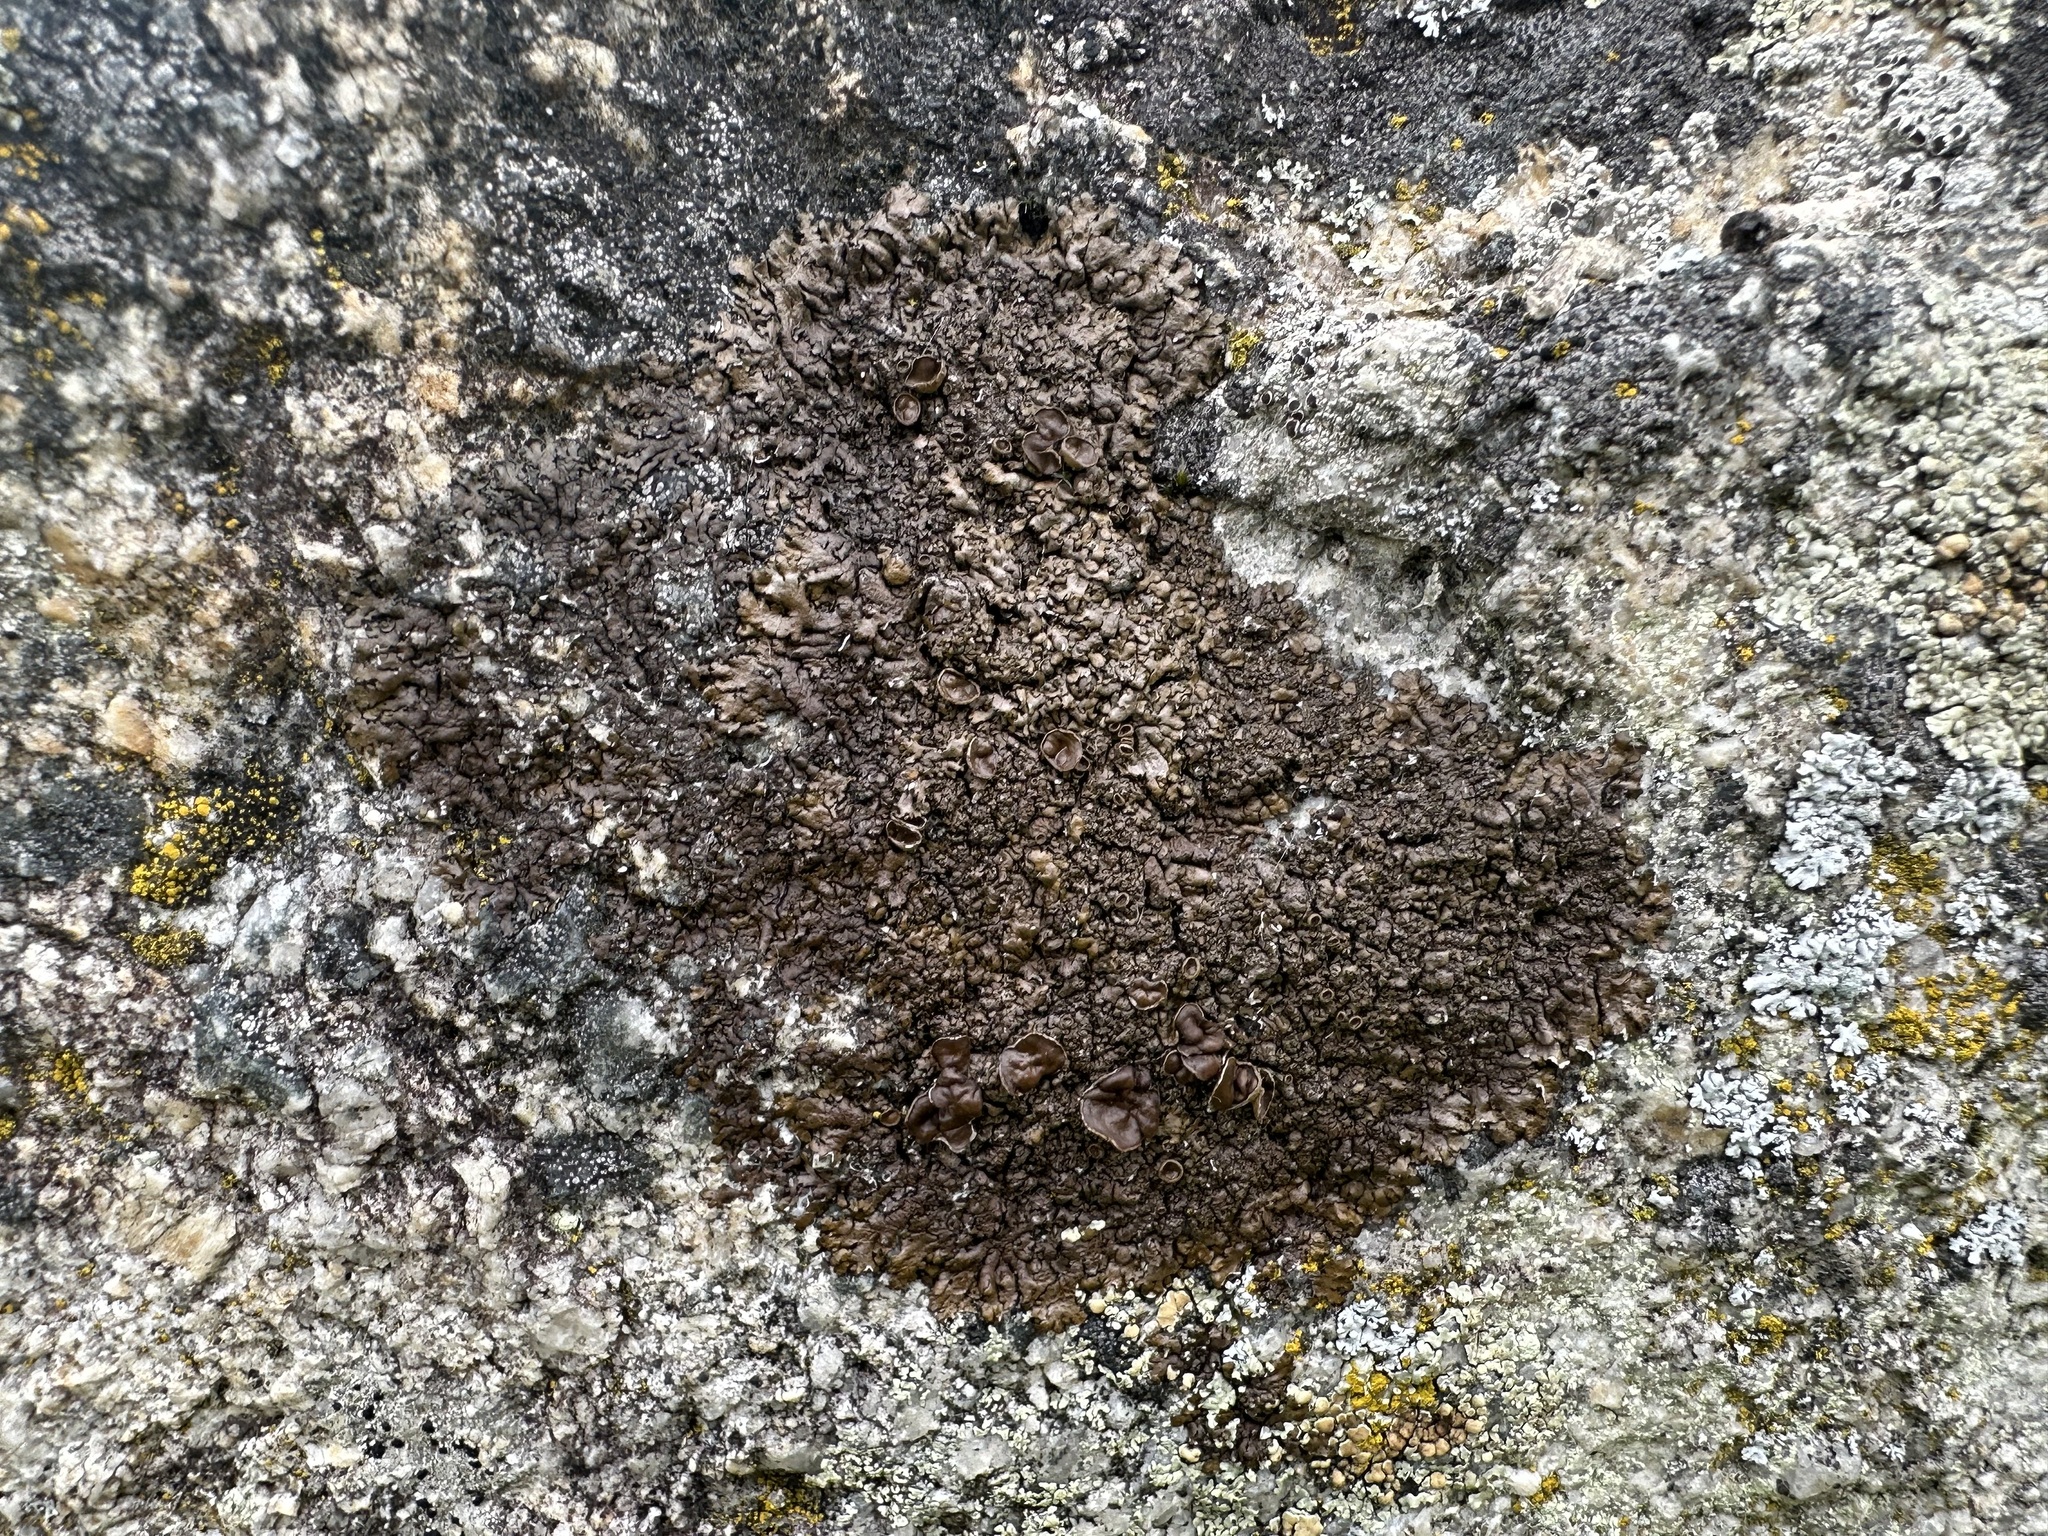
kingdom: Fungi
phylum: Ascomycota
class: Lecanoromycetes
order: Lecanorales
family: Parmeliaceae
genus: Xanthoparmelia
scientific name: Xanthoparmelia pulla
